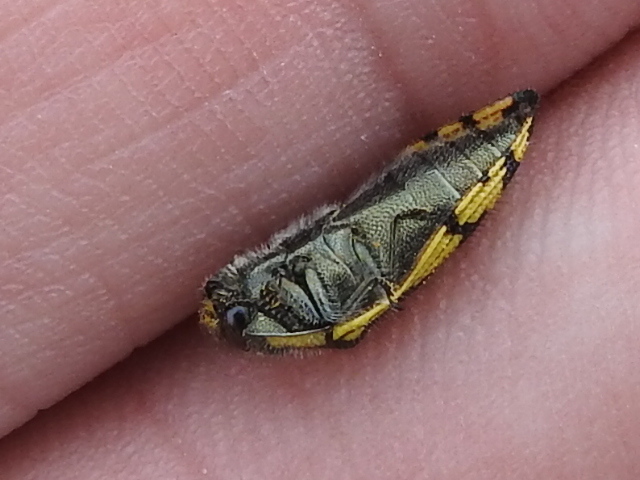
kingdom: Animalia
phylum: Arthropoda
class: Insecta
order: Coleoptera
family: Buprestidae
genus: Acmaeodera
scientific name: Acmaeodera amplicollis
